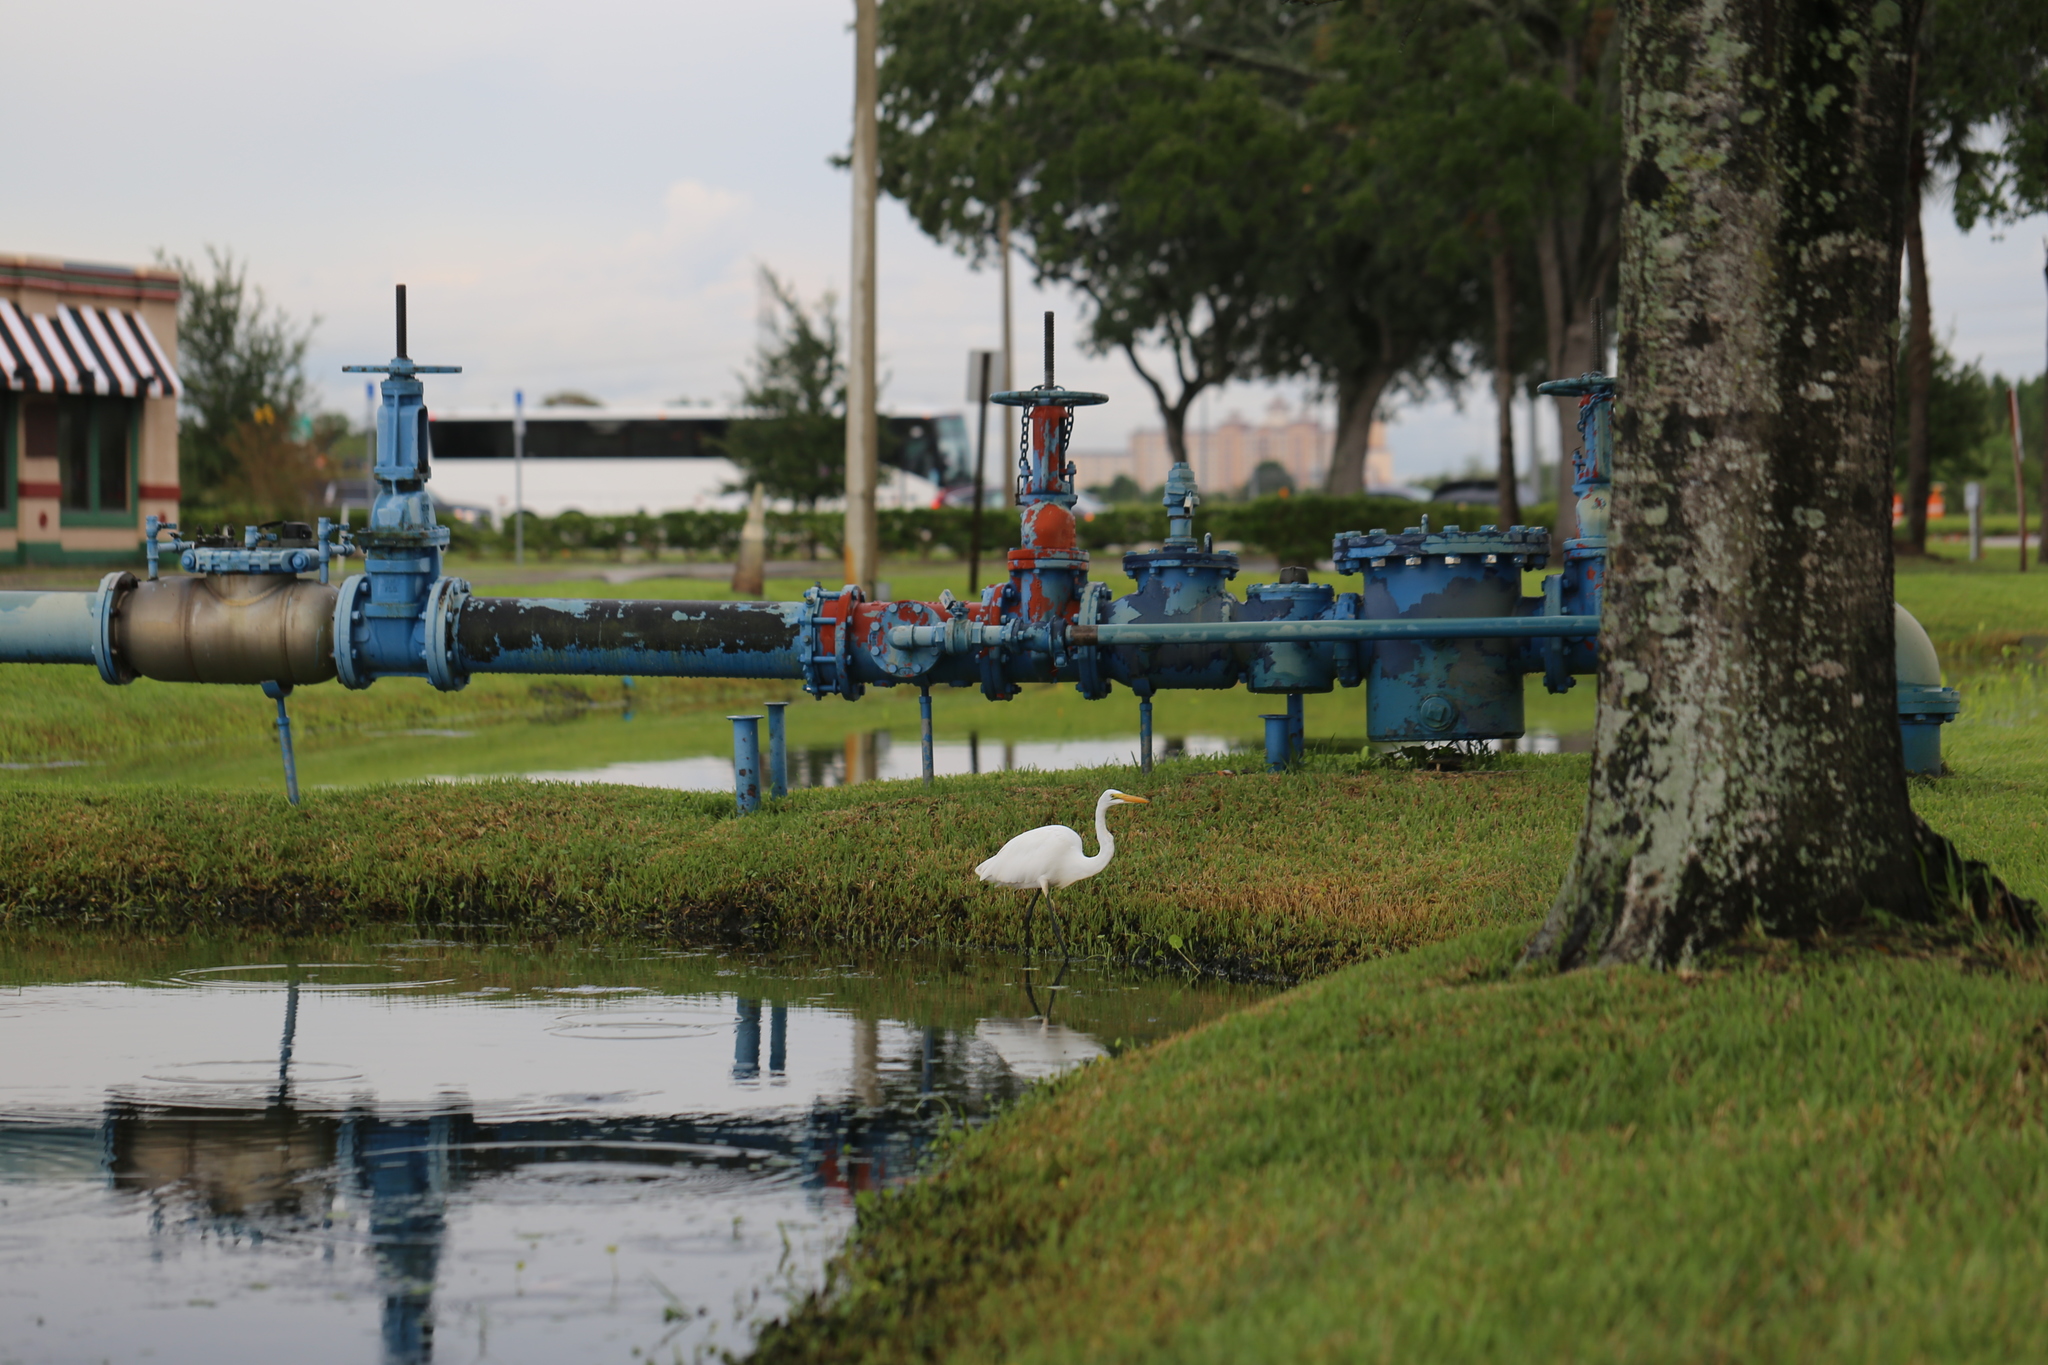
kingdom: Animalia
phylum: Chordata
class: Aves
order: Pelecaniformes
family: Ardeidae
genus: Ardea
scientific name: Ardea alba
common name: Great egret
